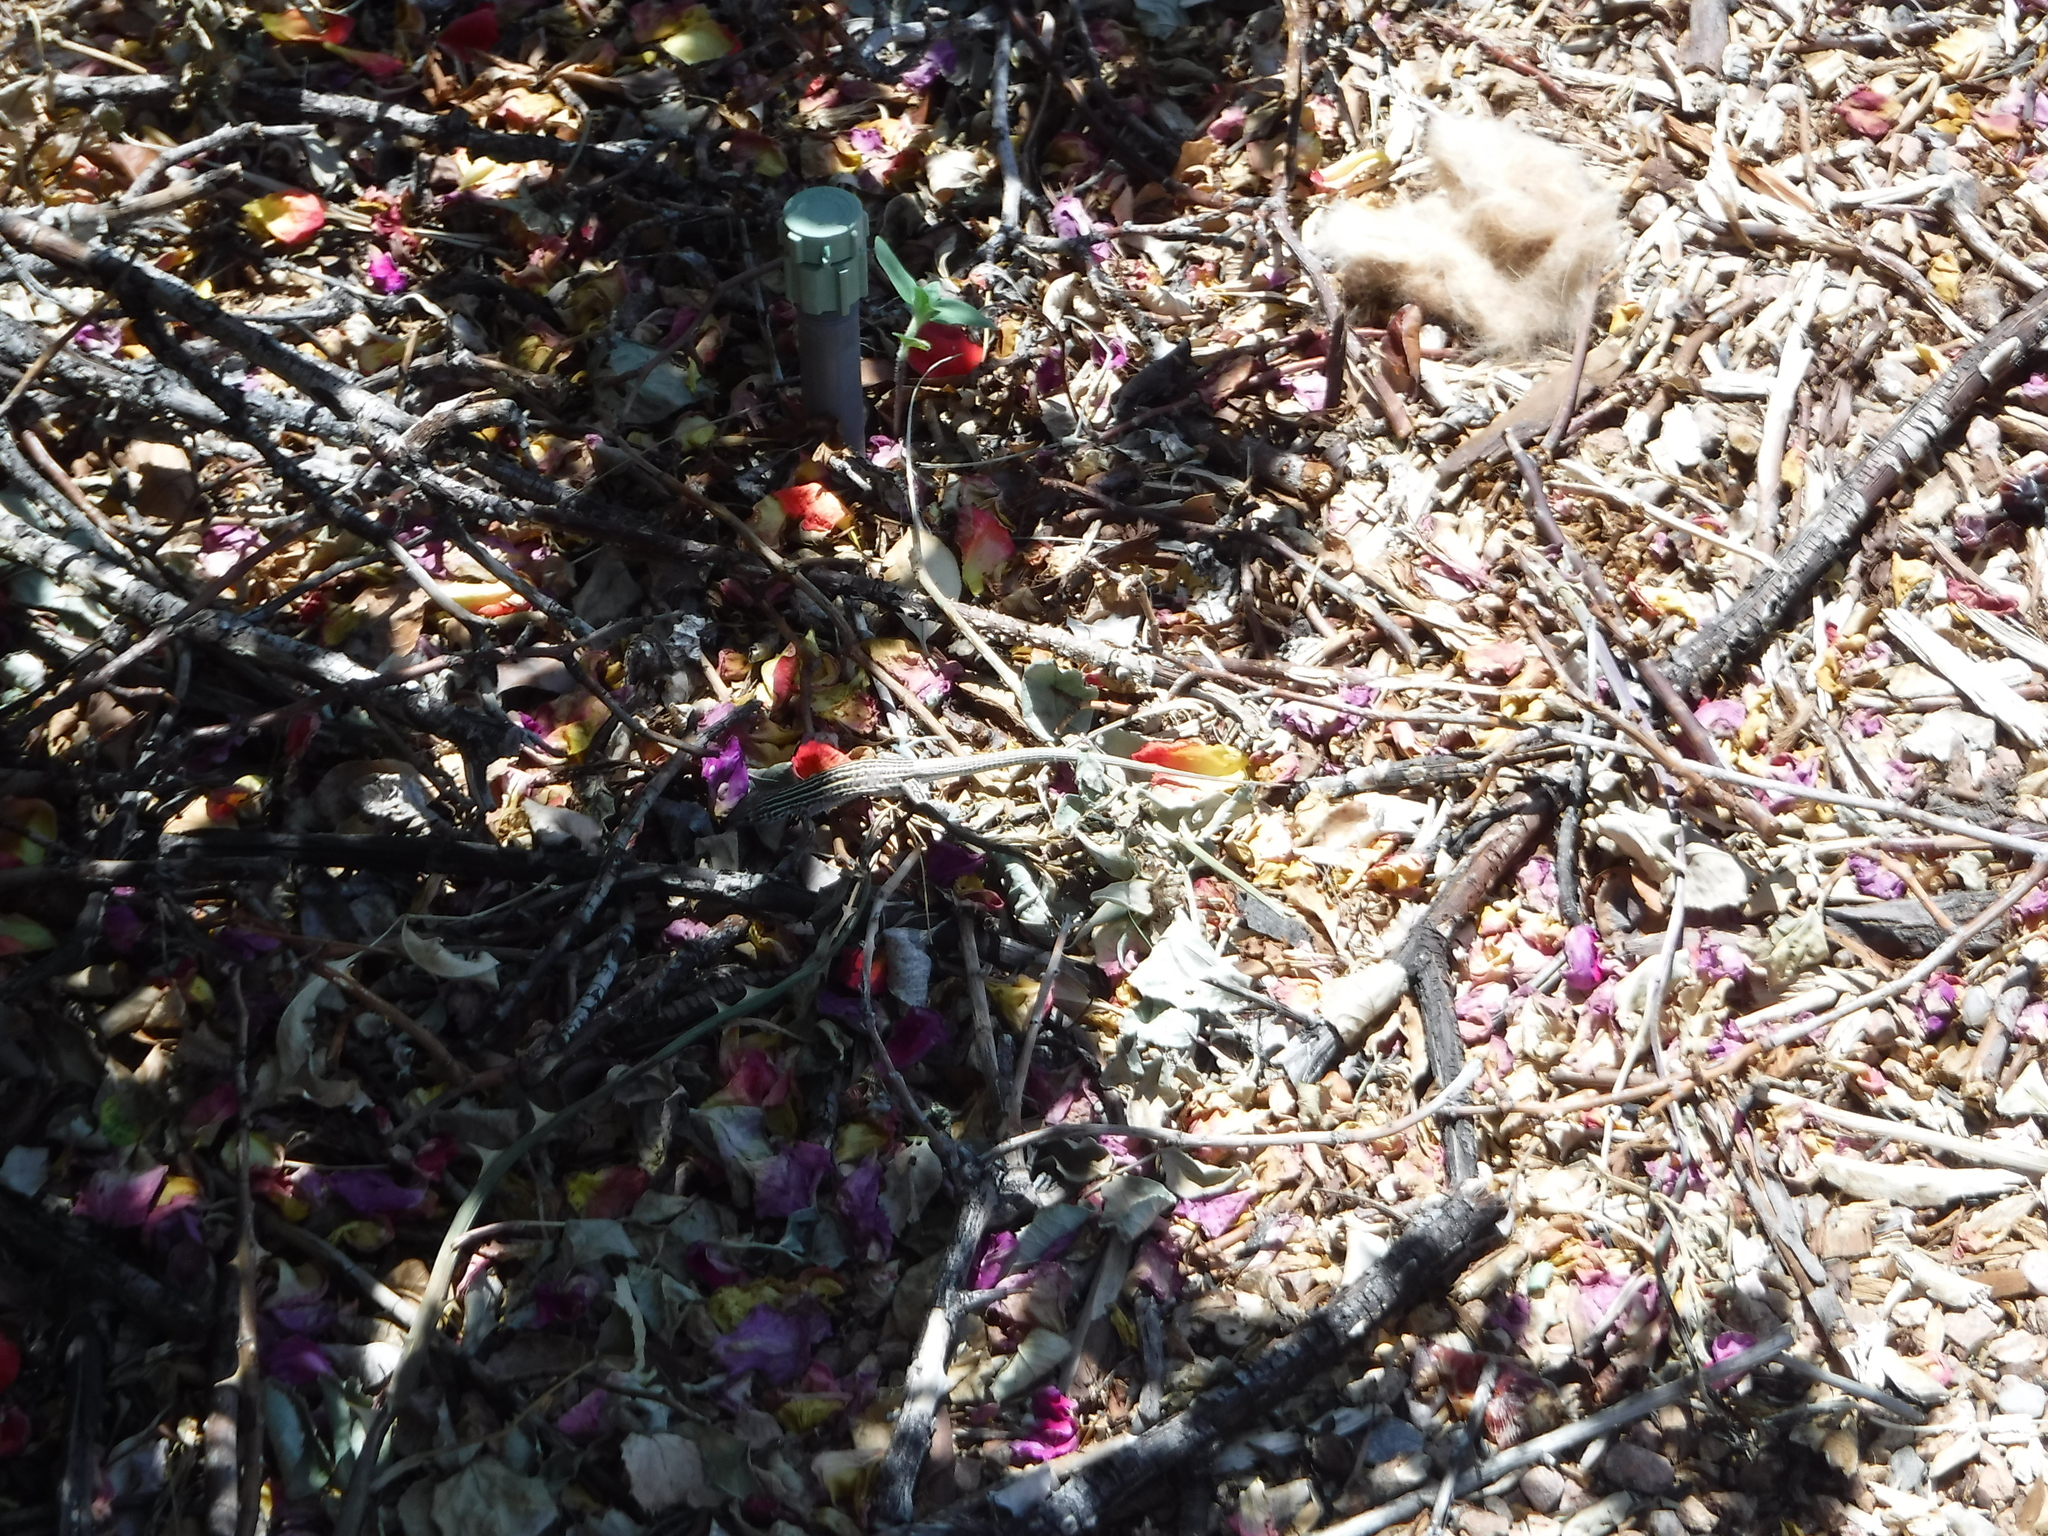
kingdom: Animalia
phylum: Chordata
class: Squamata
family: Teiidae
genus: Aspidoscelis
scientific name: Aspidoscelis neomexicanus
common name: New mexico whiptail
